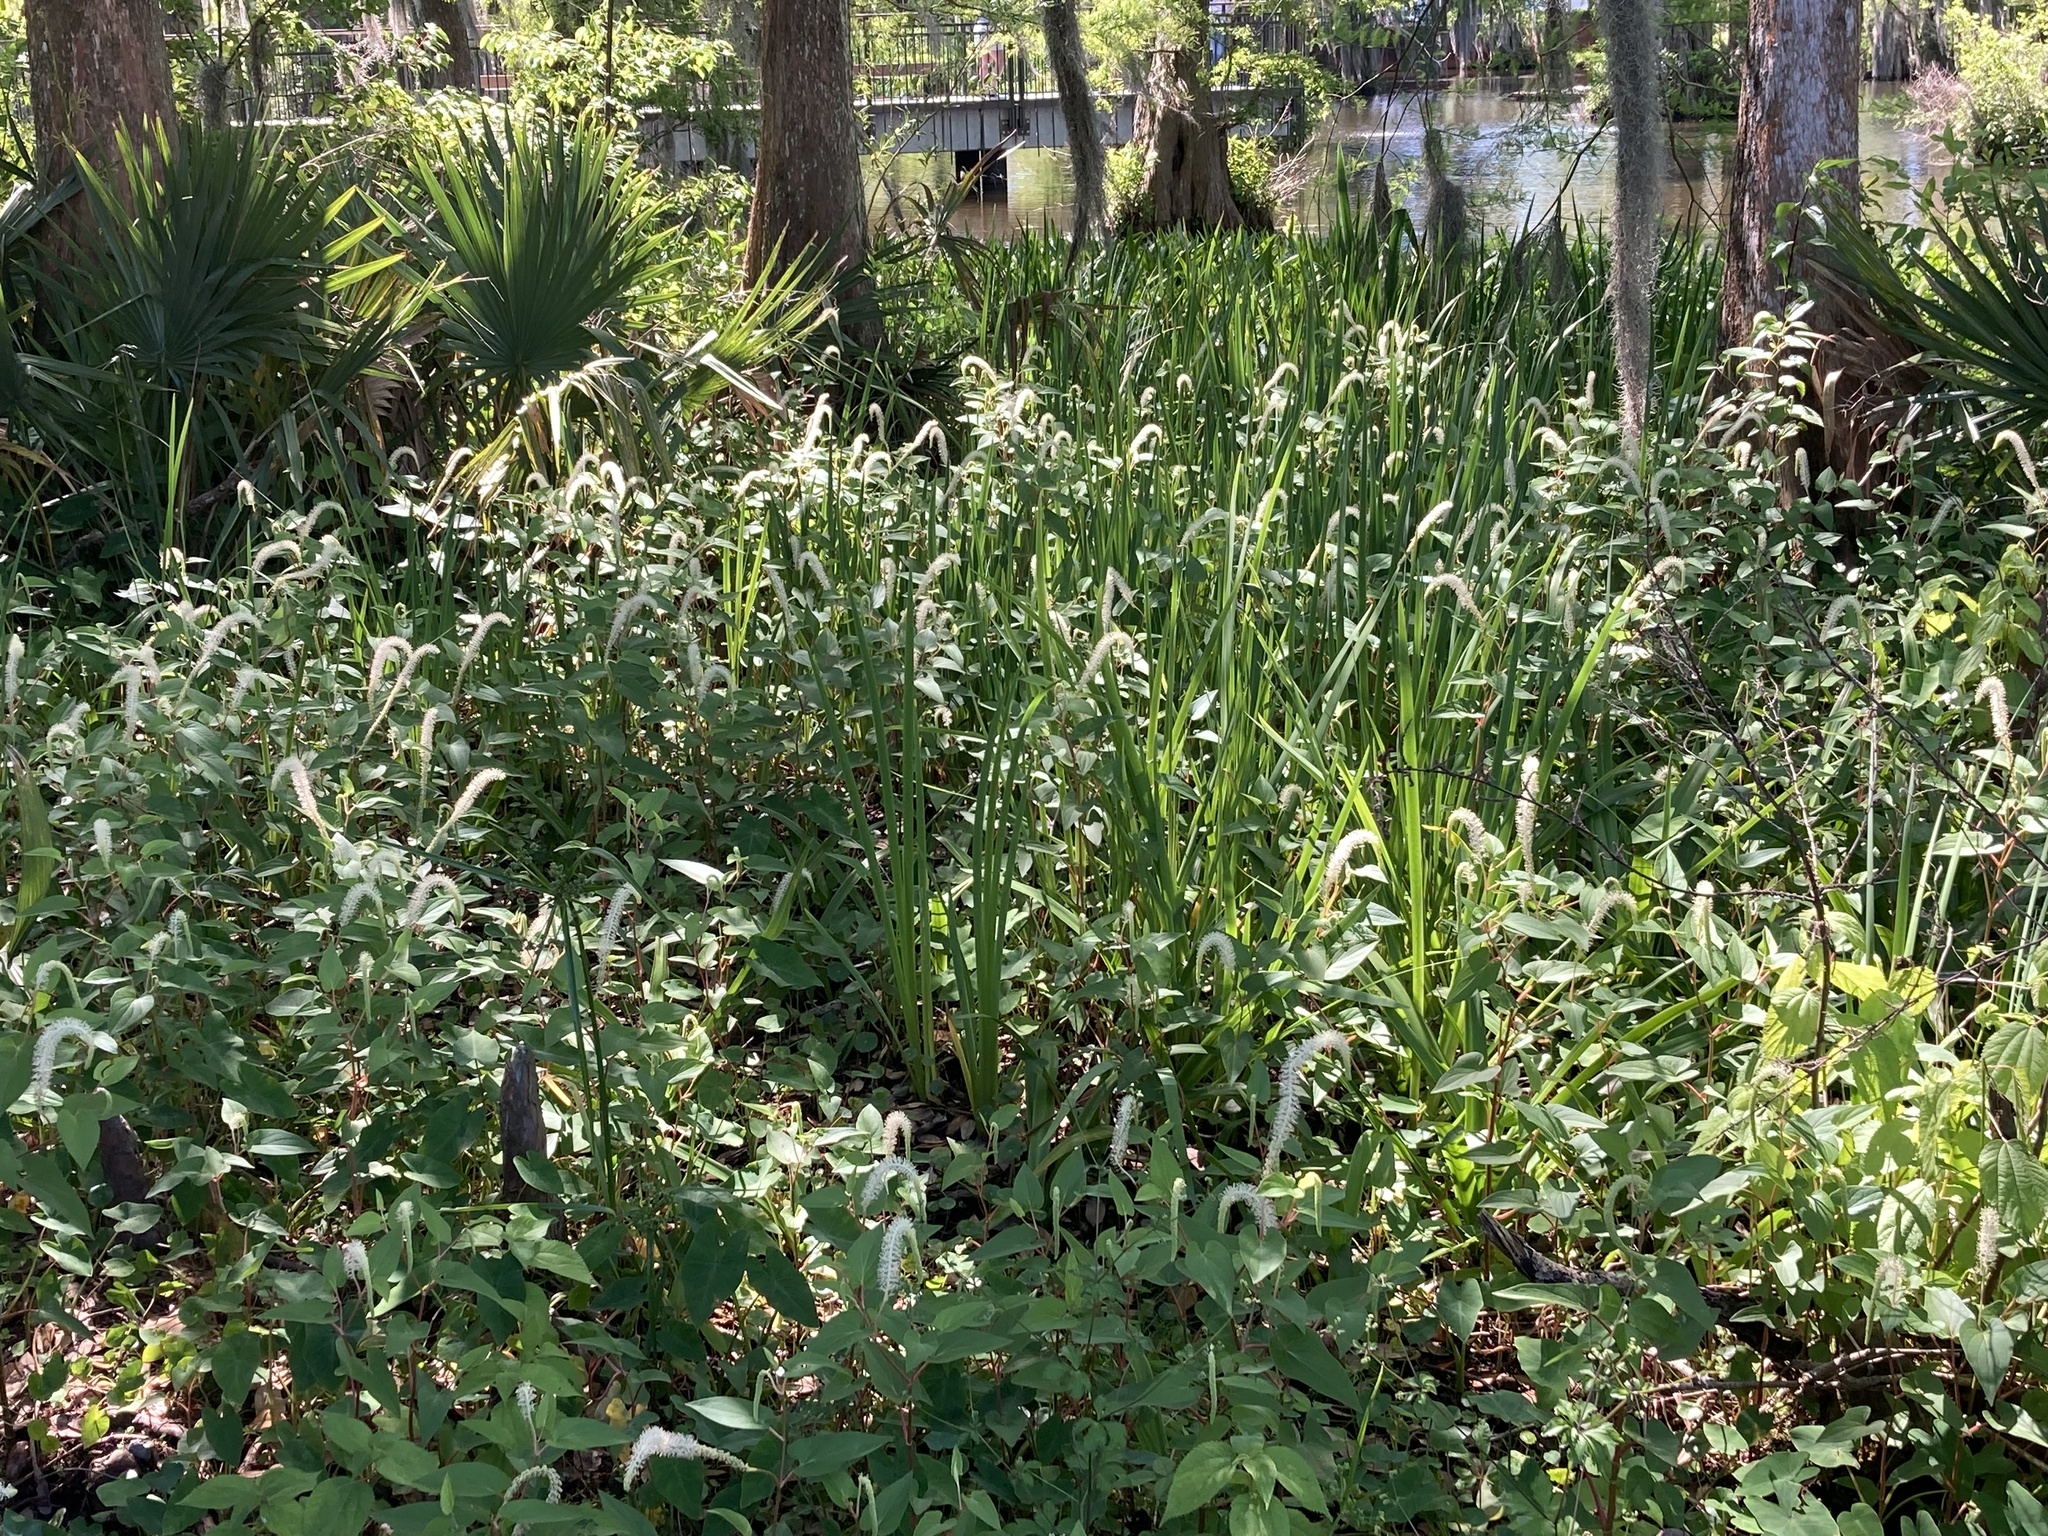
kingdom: Plantae
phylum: Tracheophyta
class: Magnoliopsida
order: Piperales
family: Saururaceae
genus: Saururus
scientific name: Saururus cernuus
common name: Lizard's-tail
